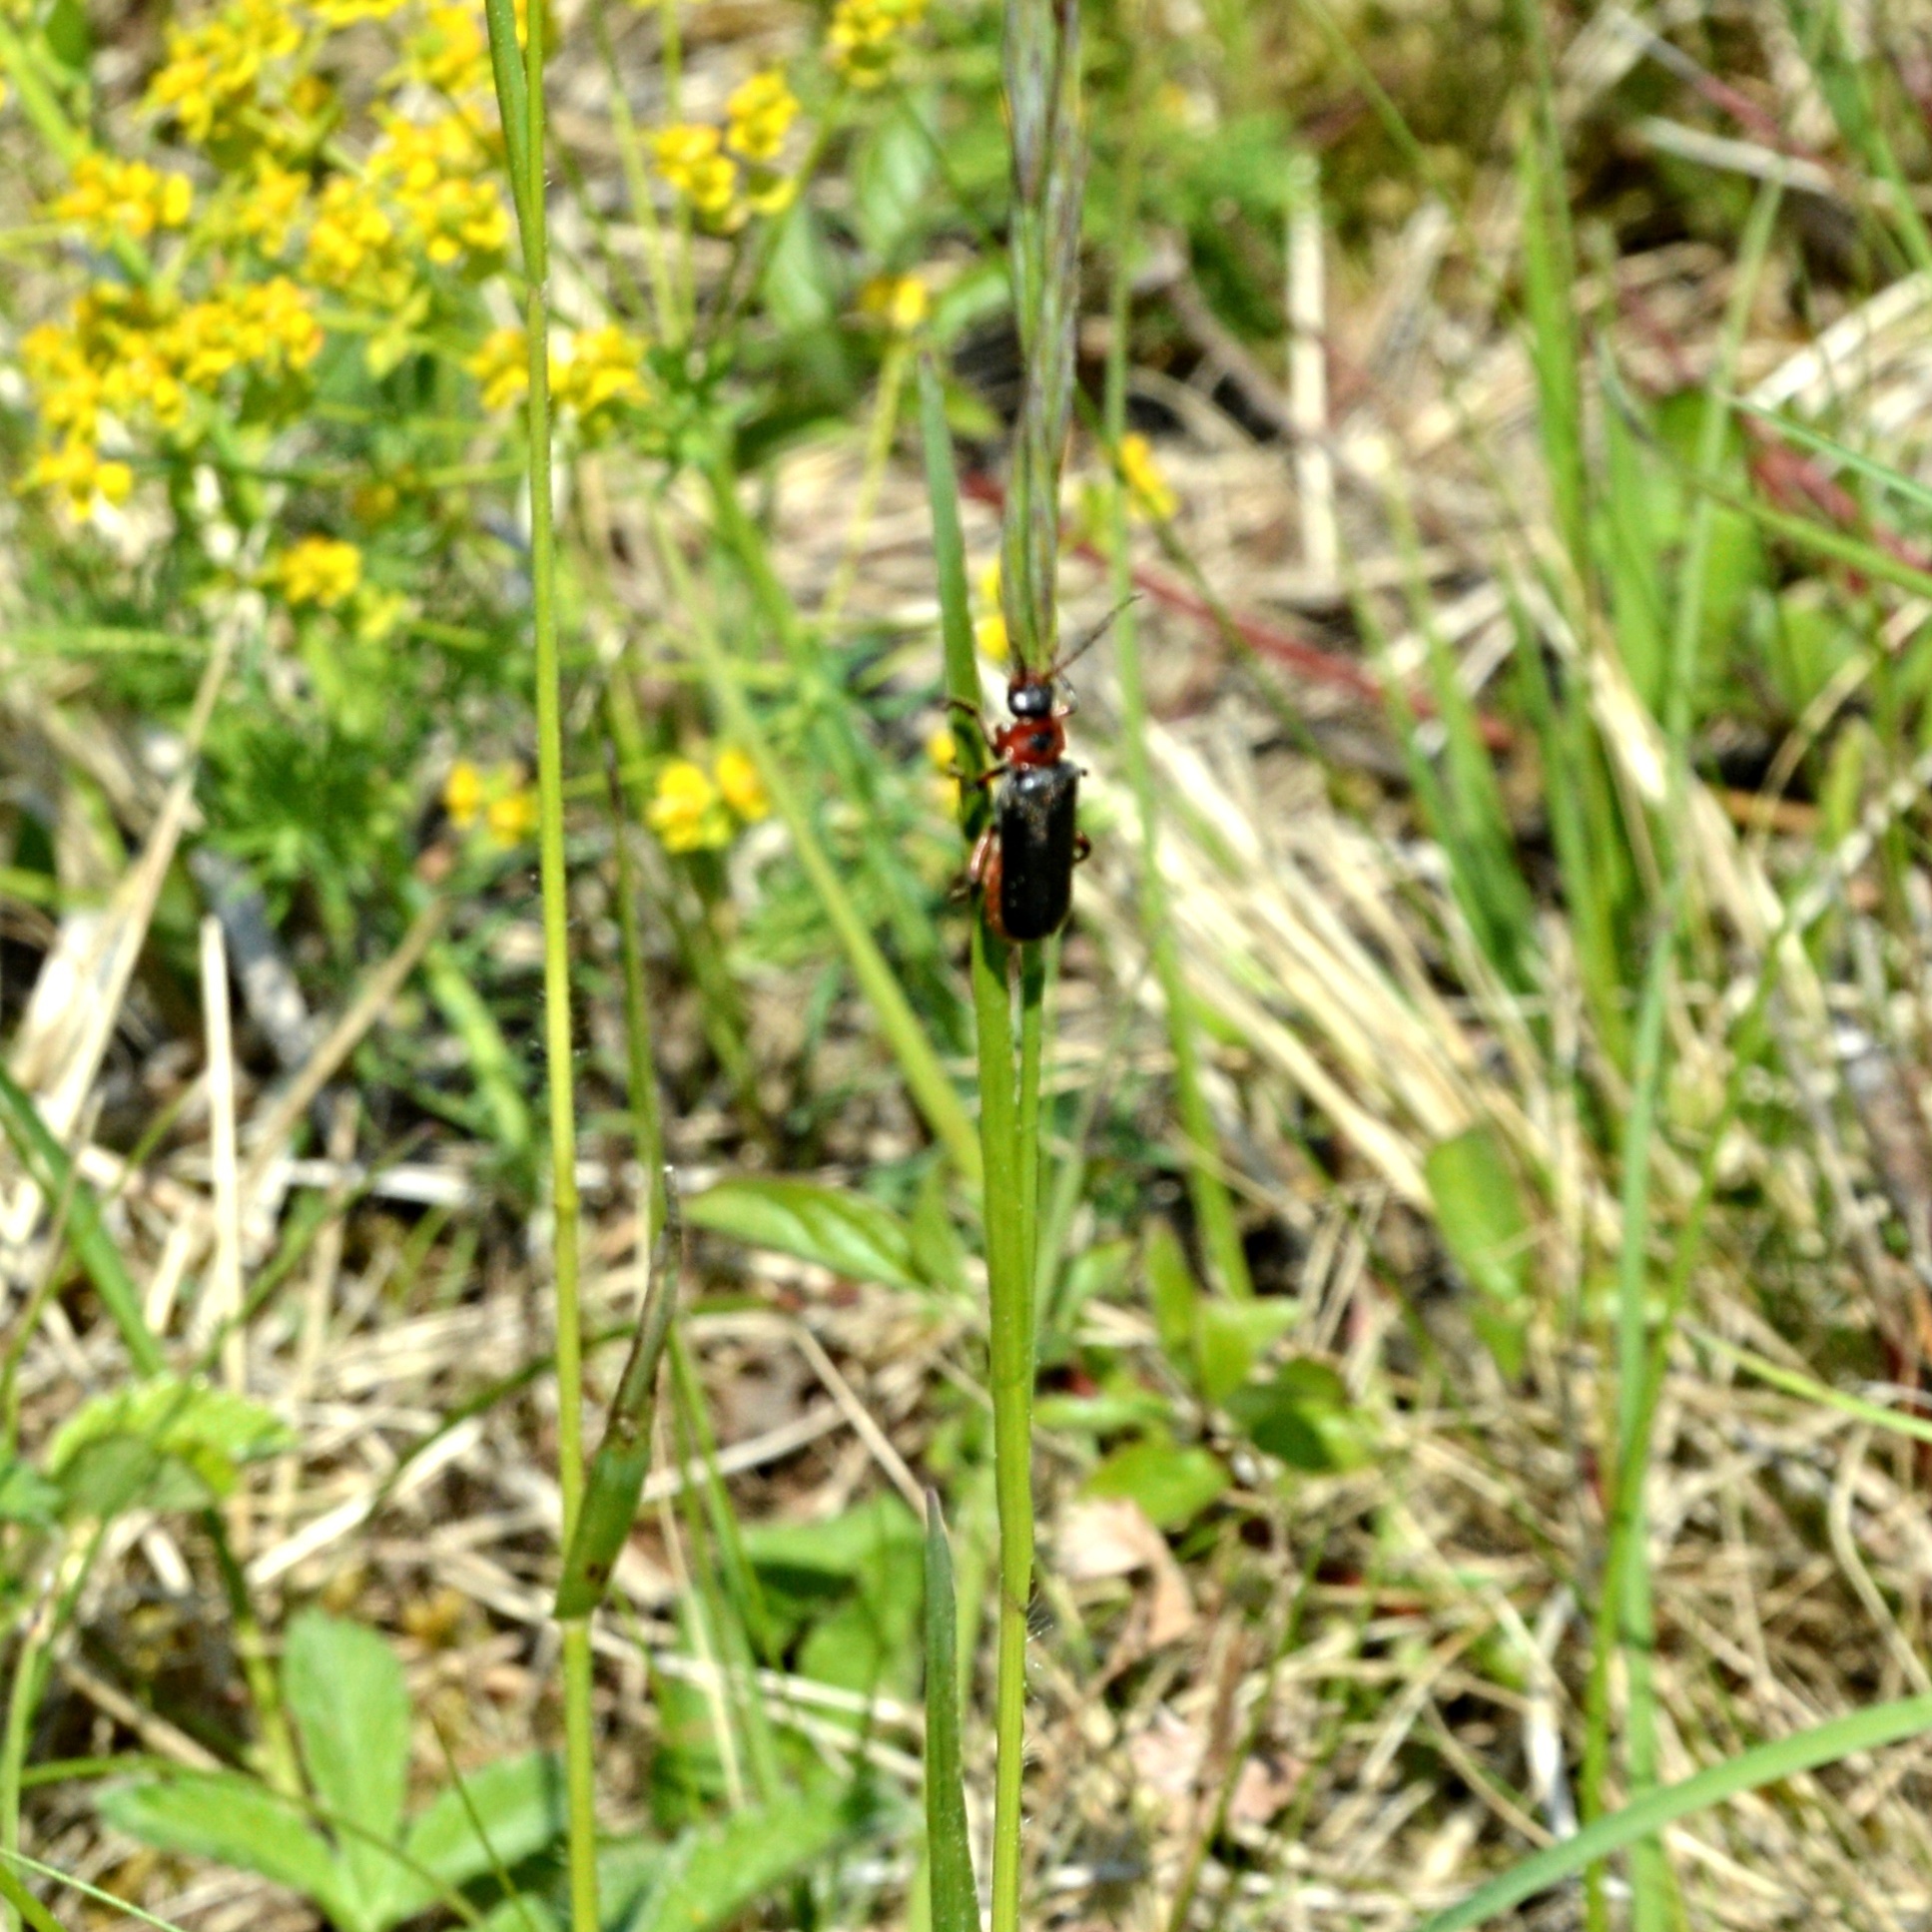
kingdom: Animalia
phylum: Arthropoda
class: Insecta
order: Coleoptera
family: Cantharidae
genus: Cantharis
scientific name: Cantharis rustica
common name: Soldier beetle
